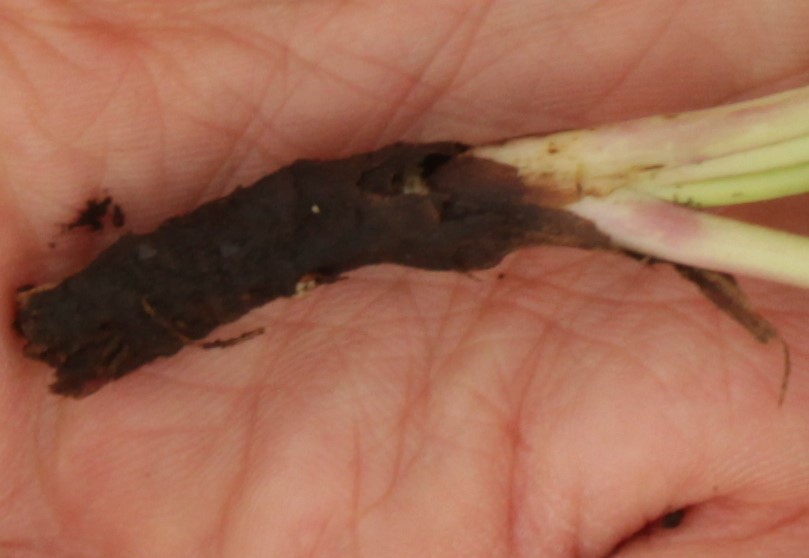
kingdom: Plantae
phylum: Tracheophyta
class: Magnoliopsida
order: Lamiales
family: Plantaginaceae
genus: Plantago
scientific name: Plantago maritima
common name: Sea plantain
